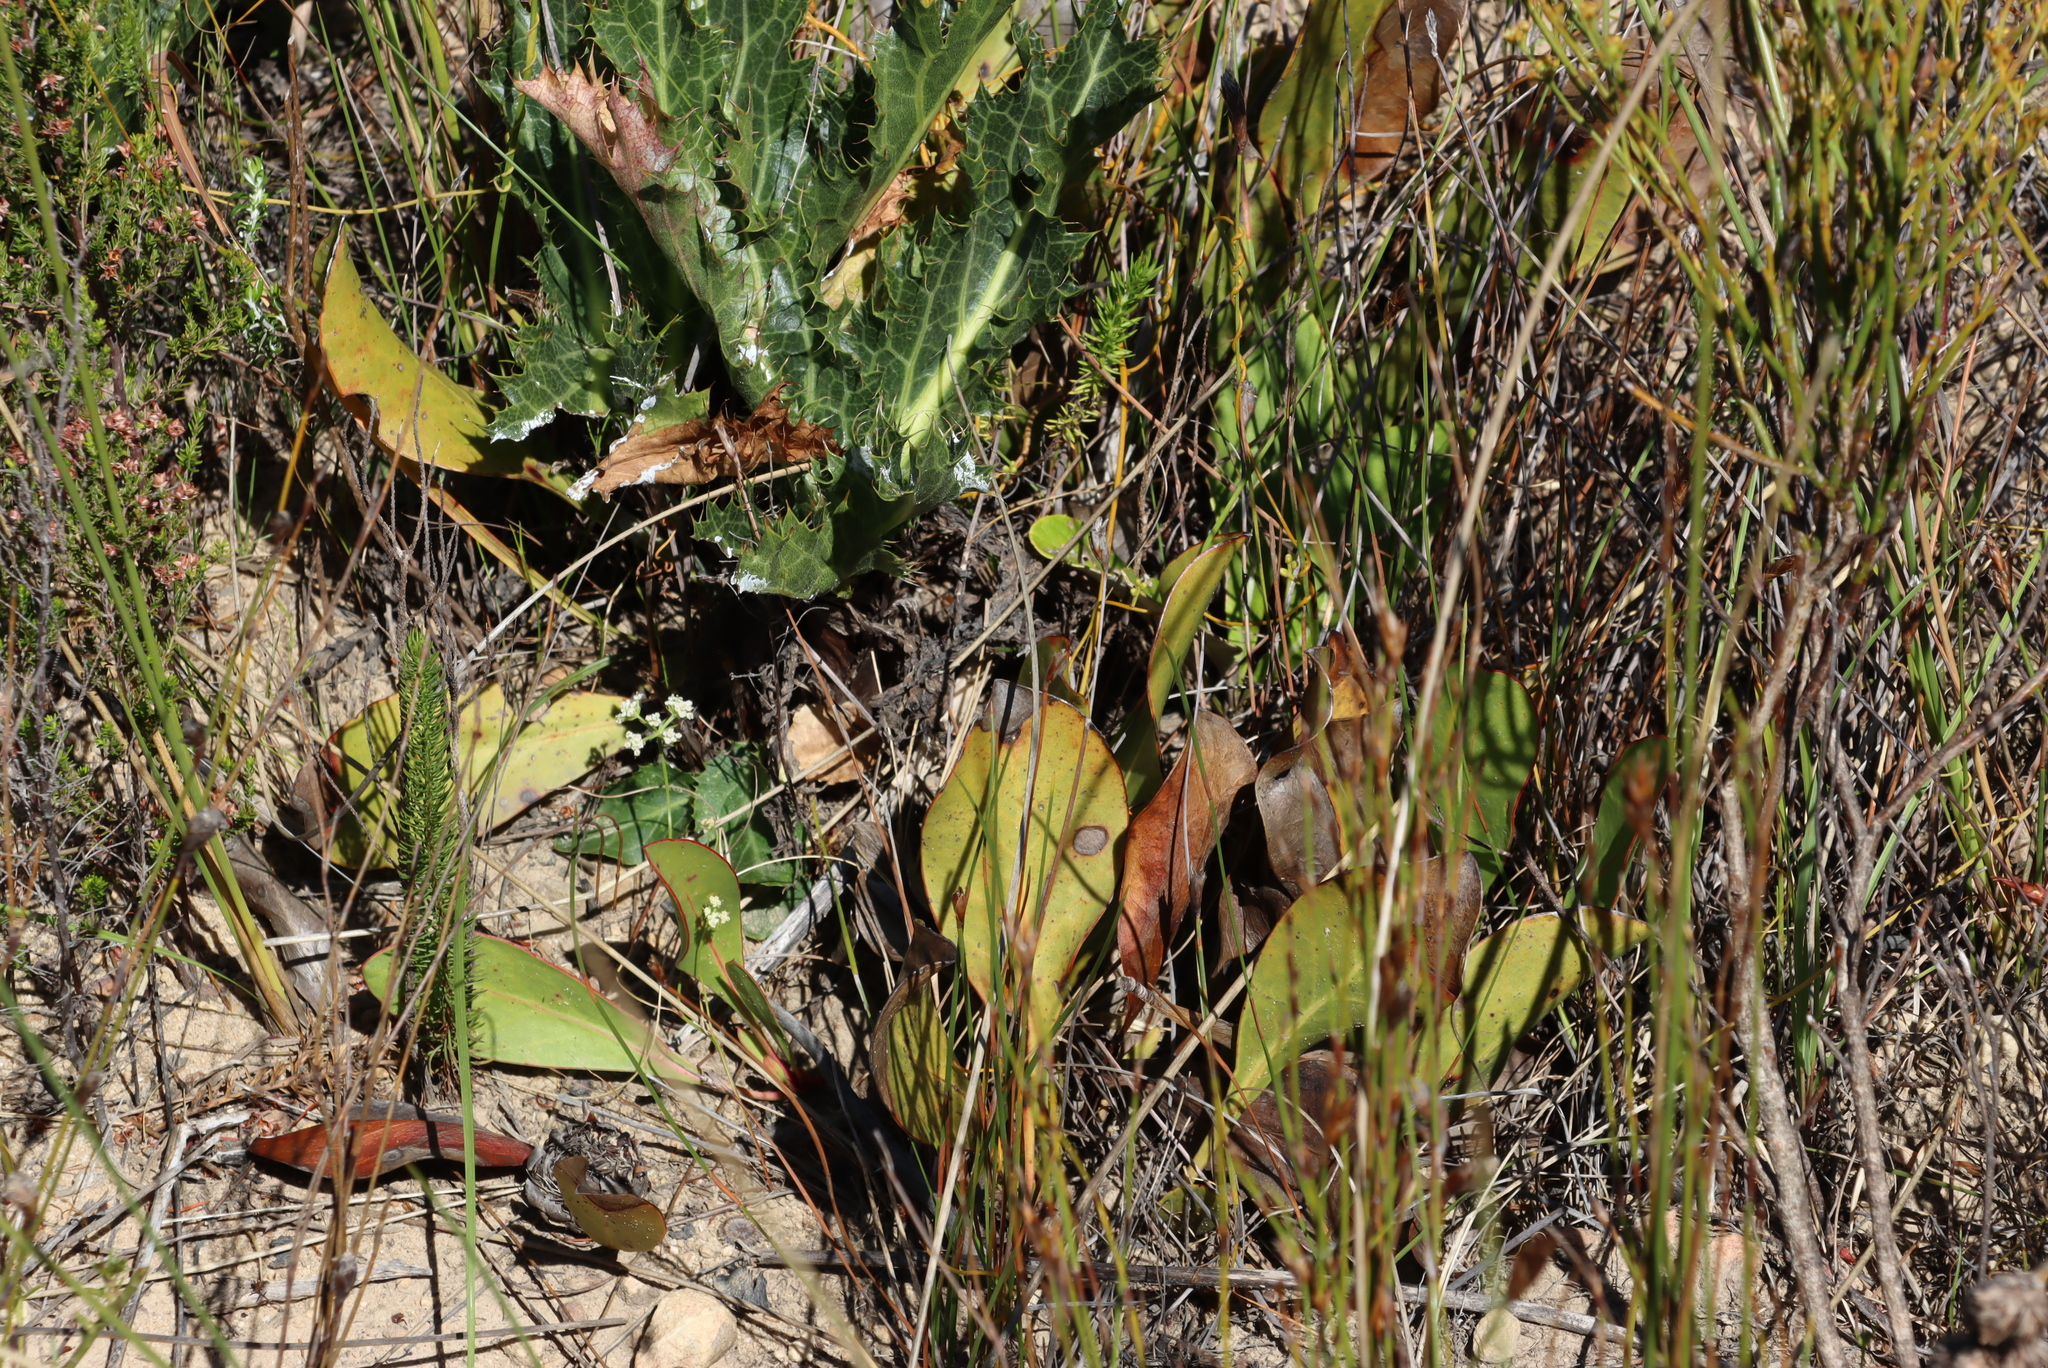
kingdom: Plantae
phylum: Tracheophyta
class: Magnoliopsida
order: Proteales
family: Proteaceae
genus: Protea
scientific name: Protea acaulos
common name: Common ground sugarbush
